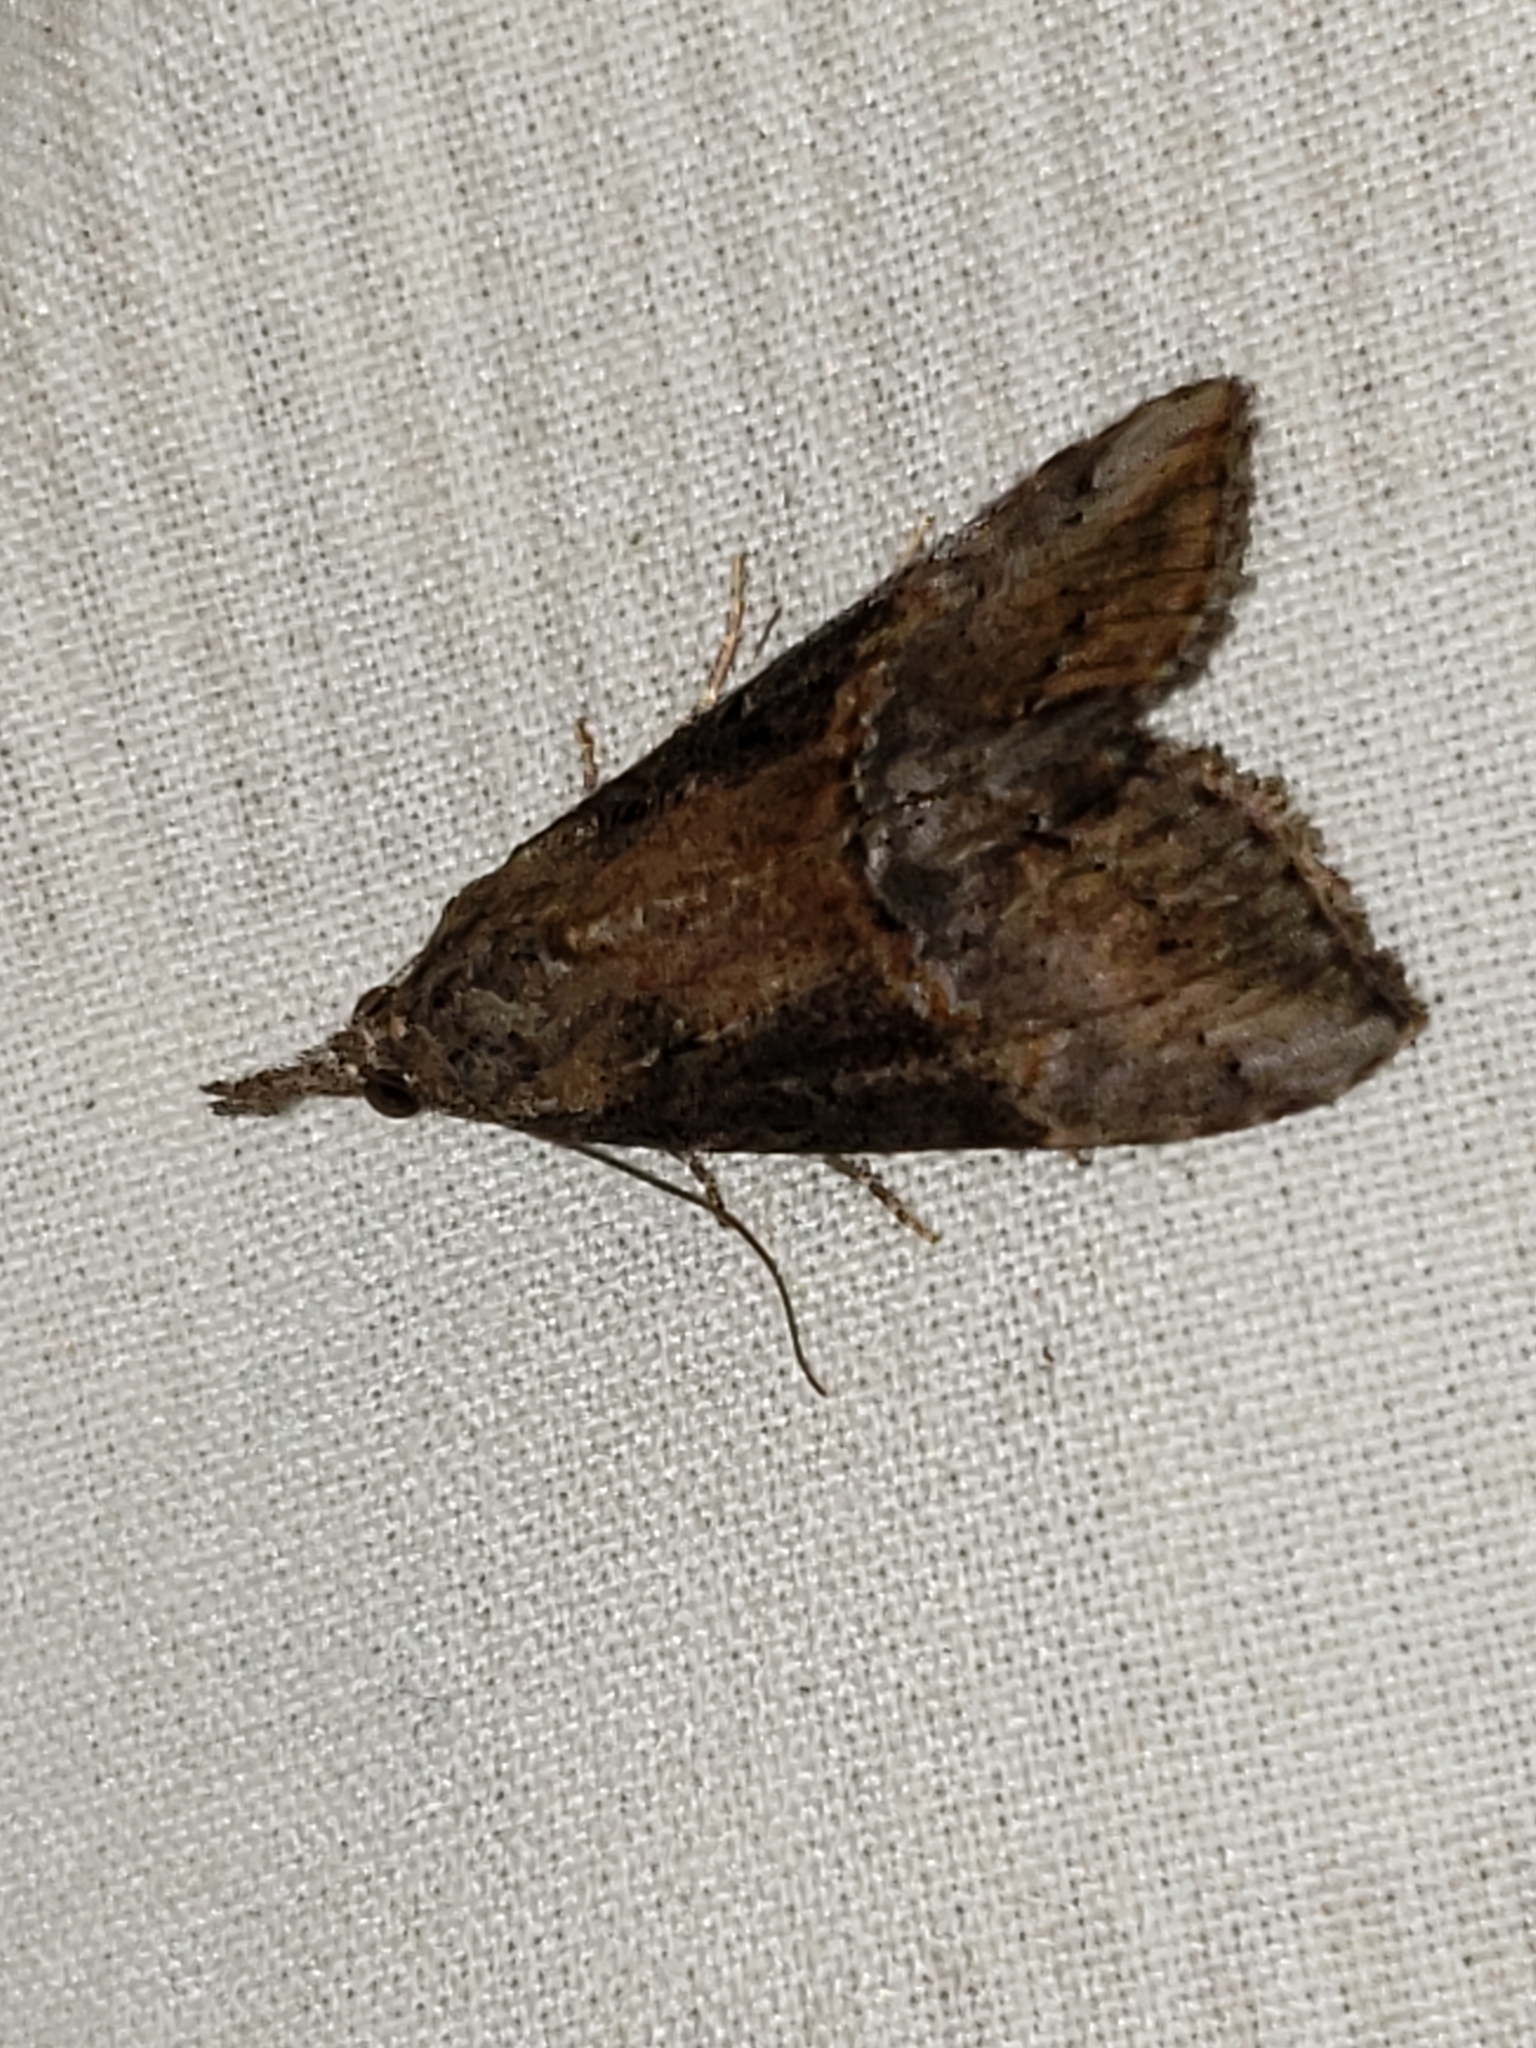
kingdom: Animalia
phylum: Arthropoda
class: Insecta
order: Lepidoptera
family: Erebidae
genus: Hypena
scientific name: Hypena scabra
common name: Green cloverworm
